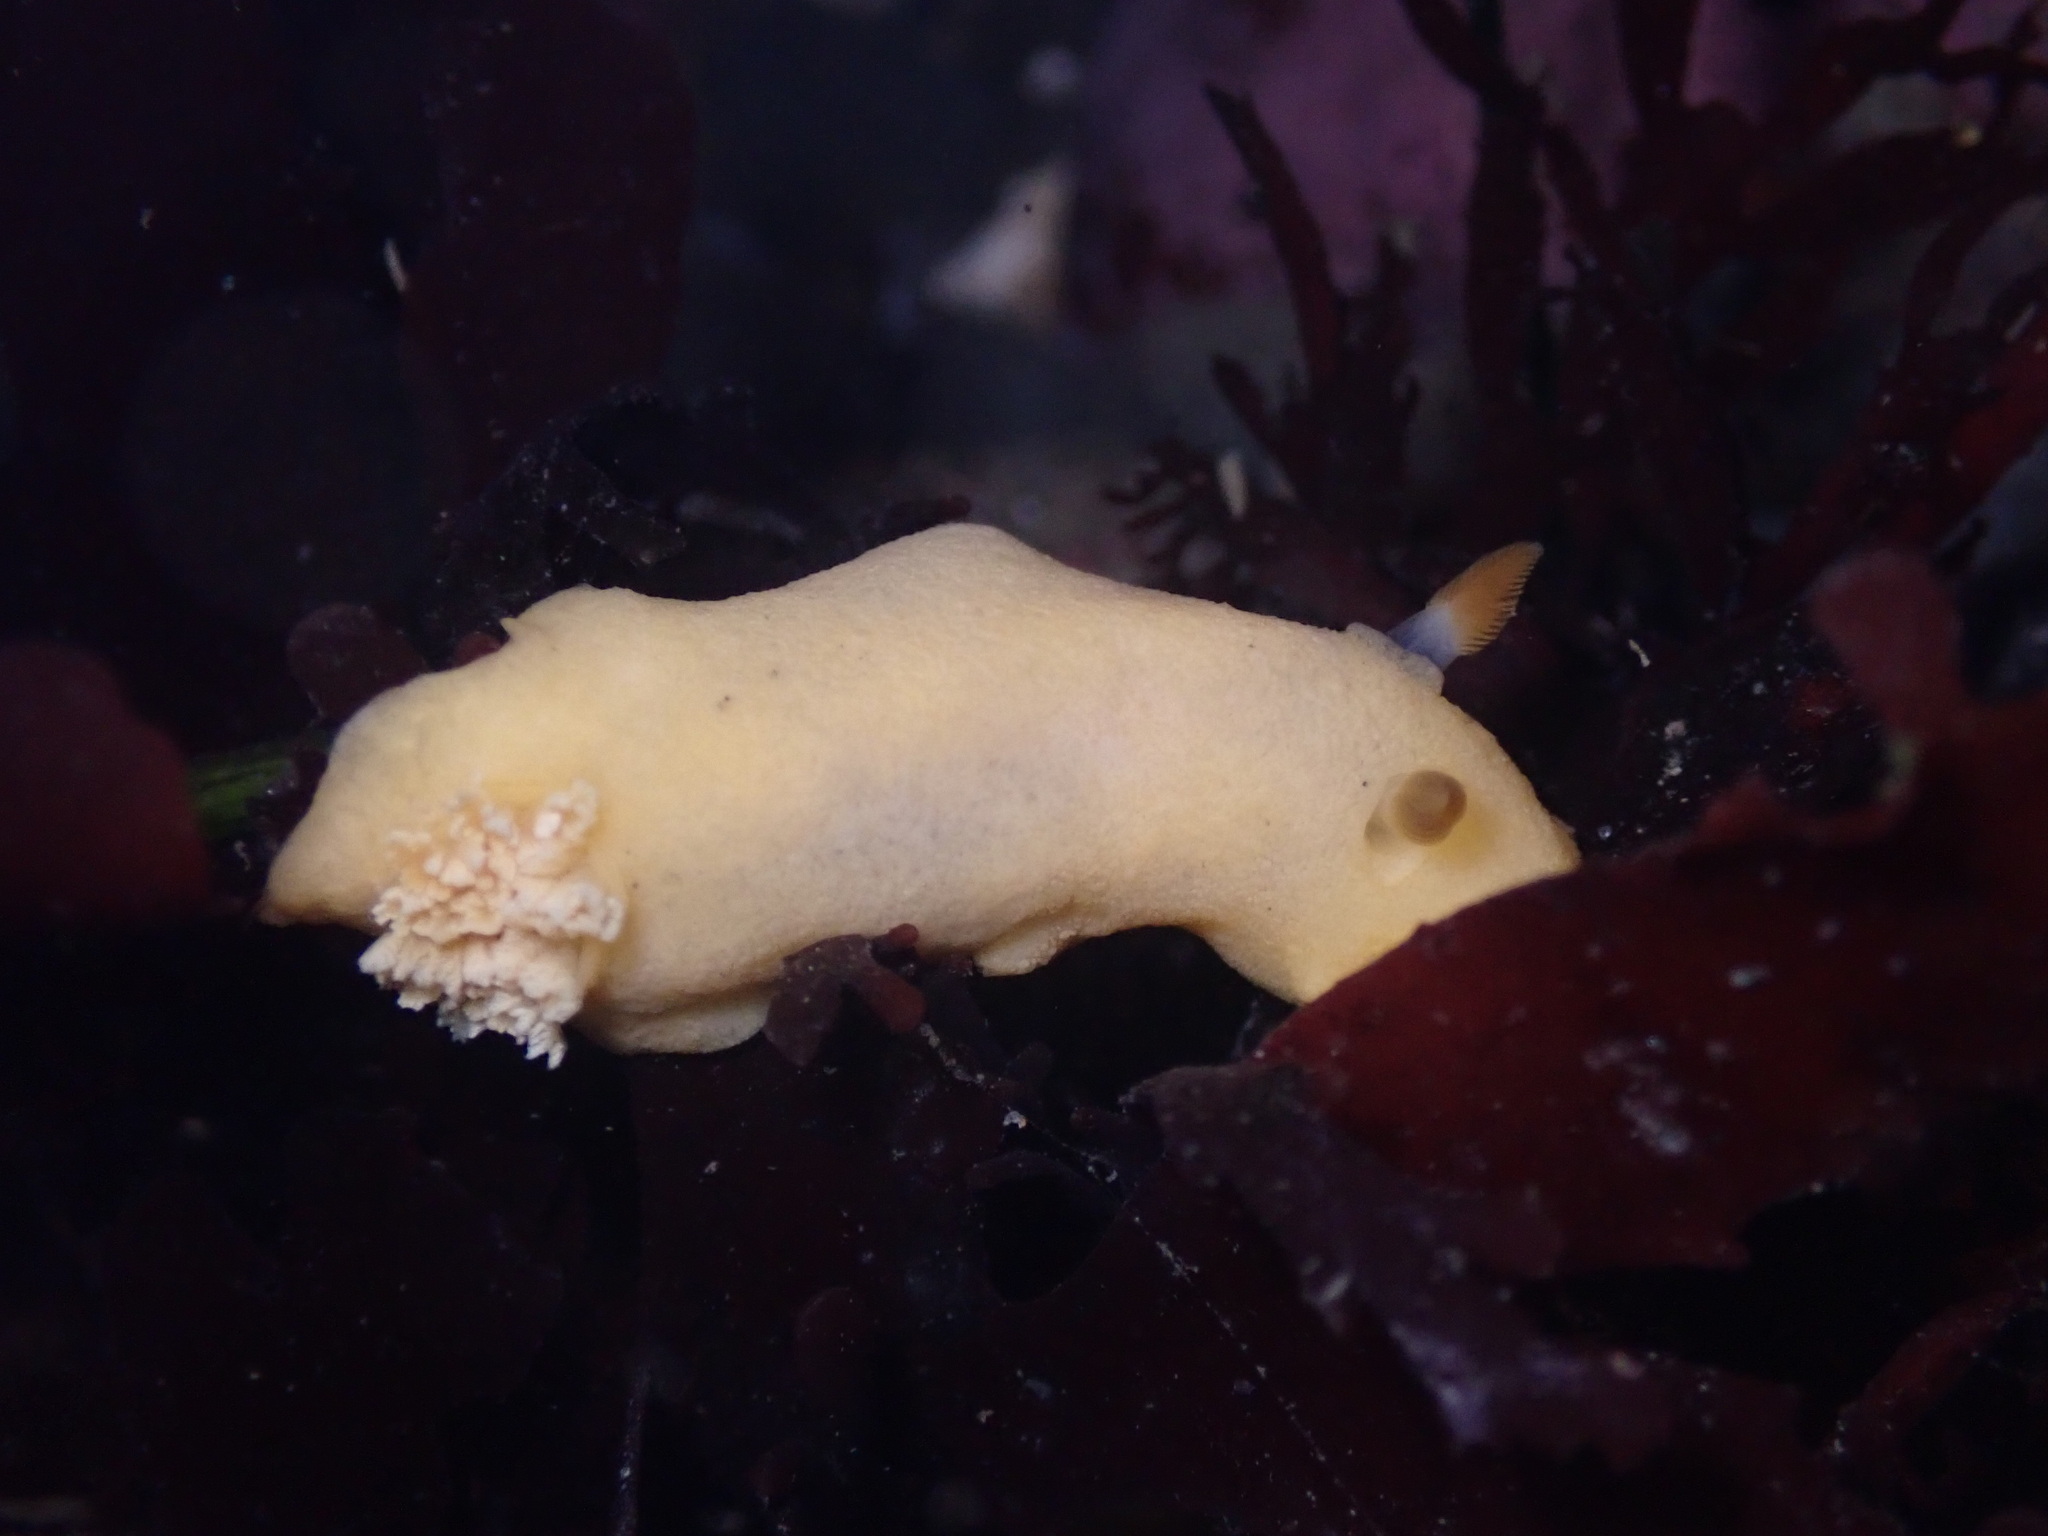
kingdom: Animalia
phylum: Mollusca
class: Gastropoda
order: Nudibranchia
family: Discodorididae
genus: Geitodoris
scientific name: Geitodoris heathi
